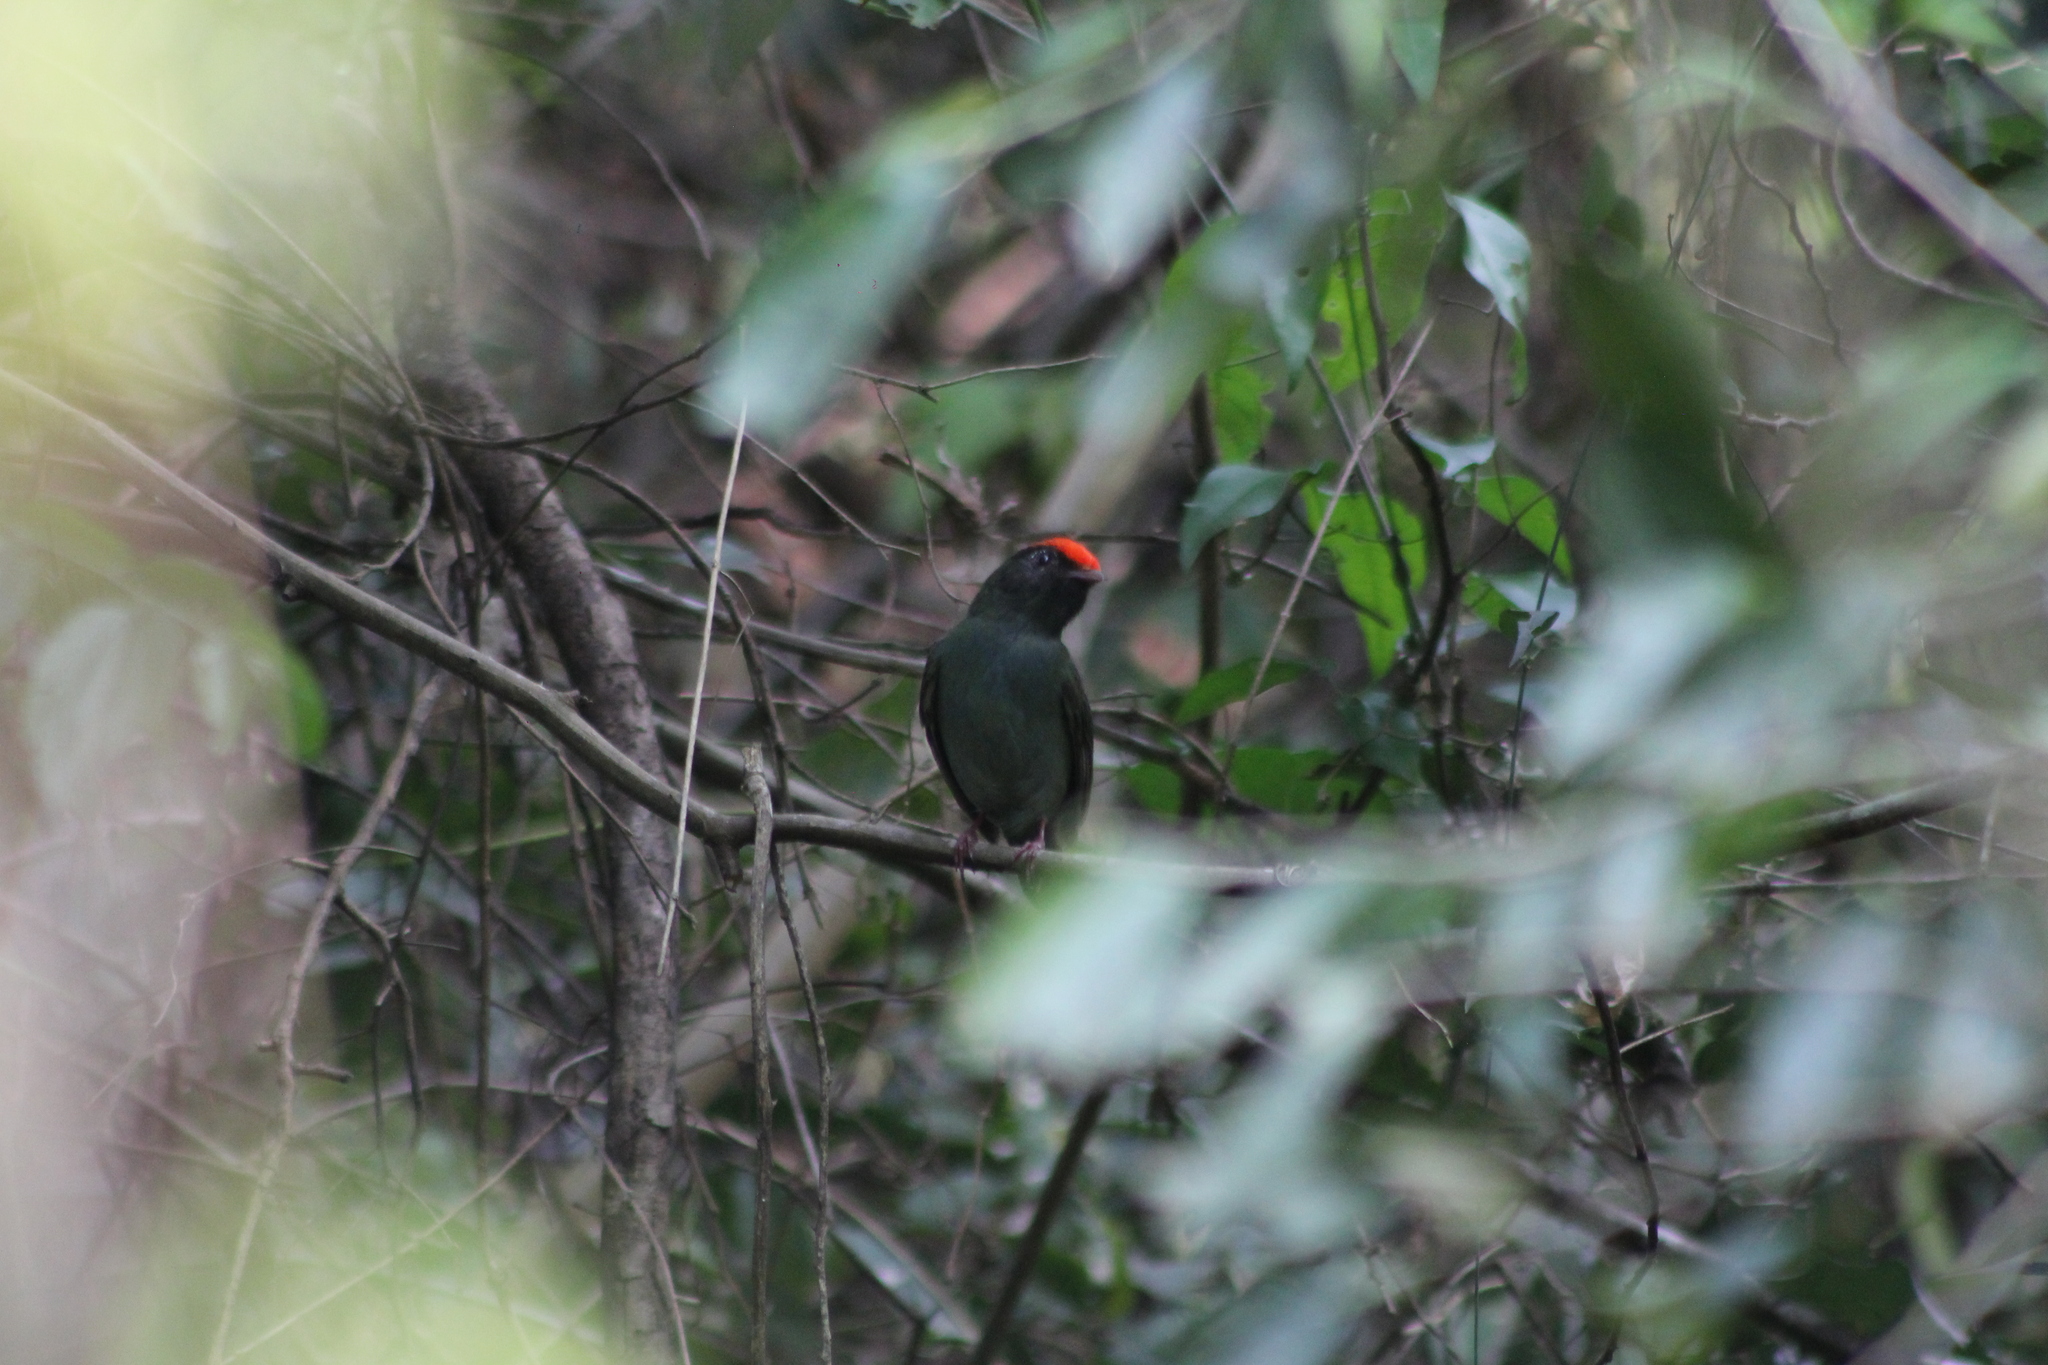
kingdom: Animalia
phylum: Chordata
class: Aves
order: Passeriformes
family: Pipridae
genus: Chiroxiphia
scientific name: Chiroxiphia caudata
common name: Blue manakin
